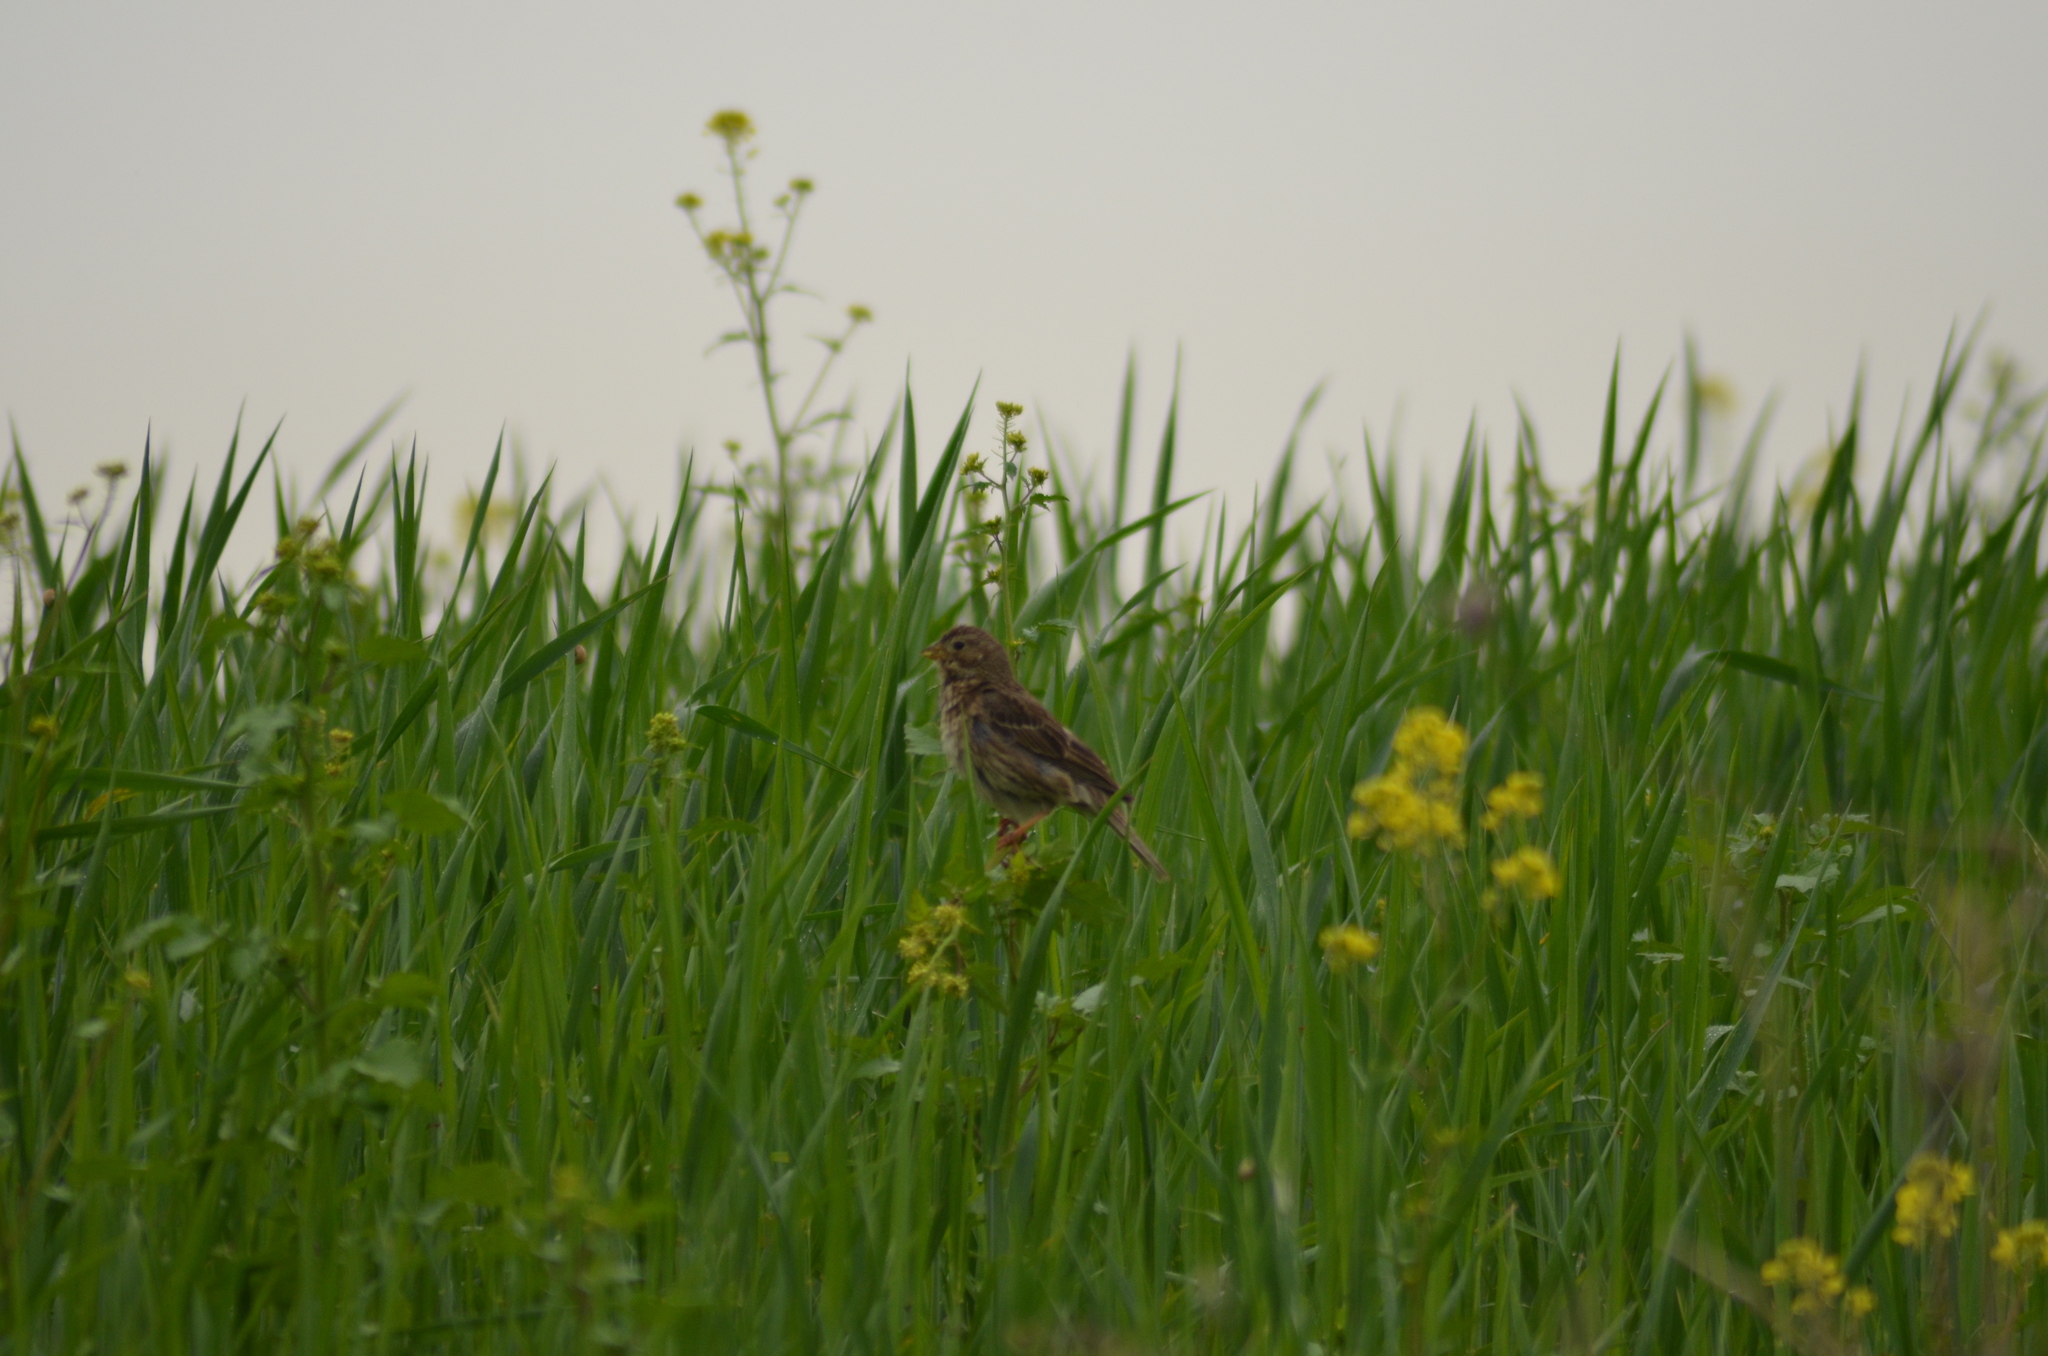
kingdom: Animalia
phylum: Chordata
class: Aves
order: Passeriformes
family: Emberizidae
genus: Emberiza
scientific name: Emberiza calandra
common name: Corn bunting
